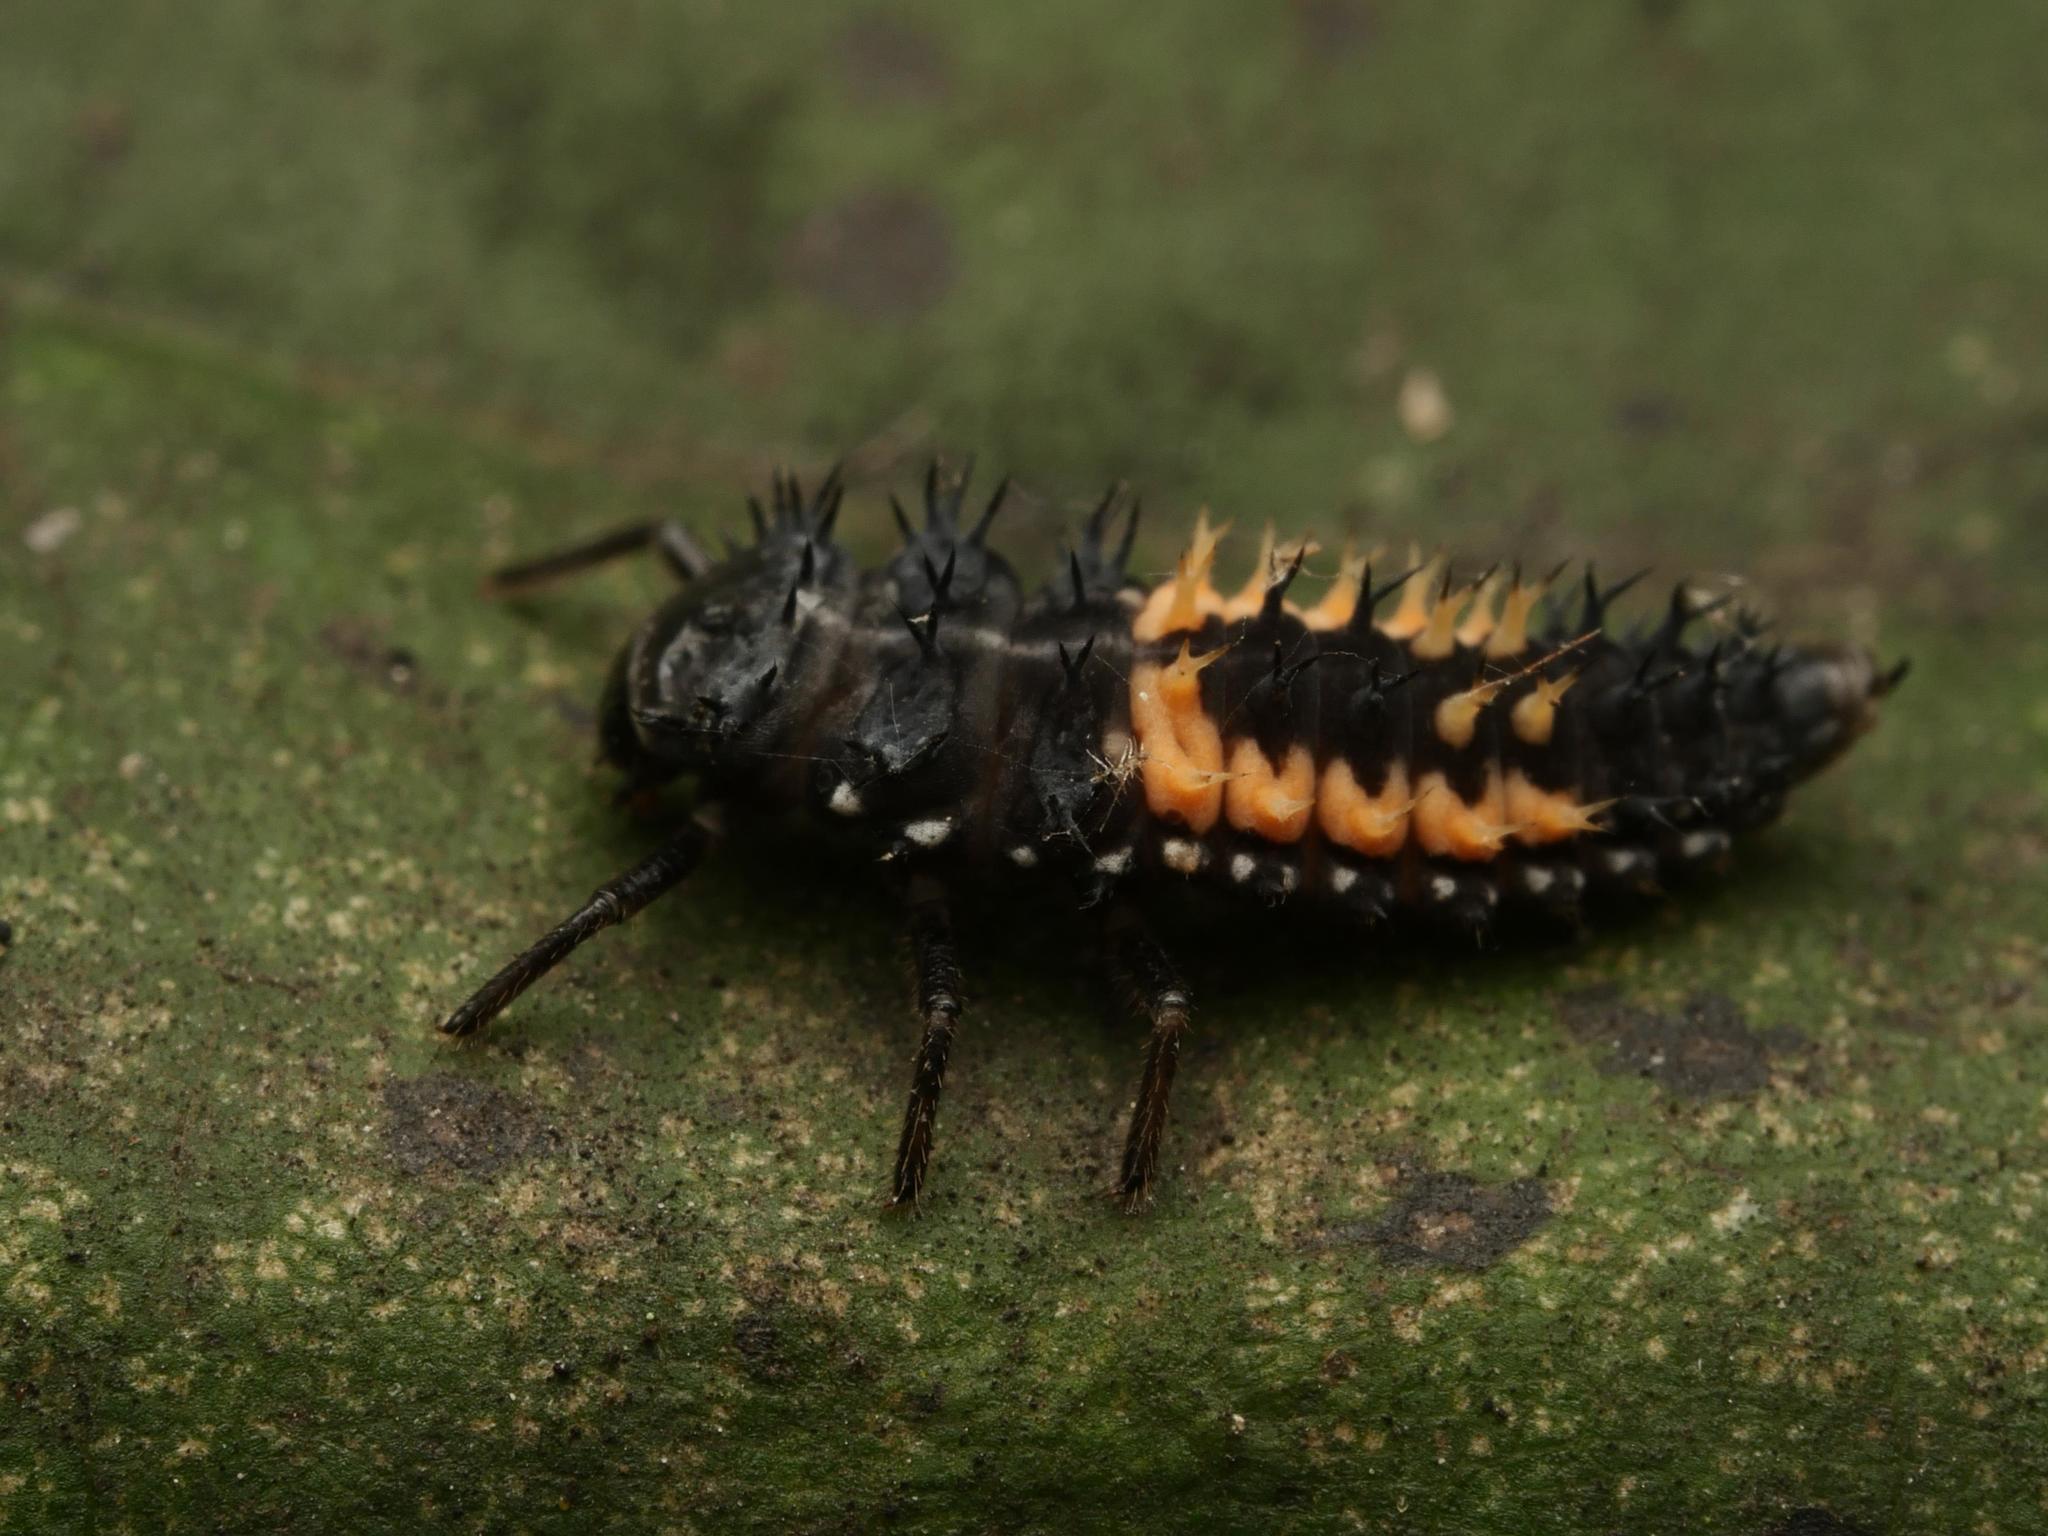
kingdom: Animalia
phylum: Arthropoda
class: Insecta
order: Coleoptera
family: Coccinellidae
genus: Harmonia
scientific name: Harmonia axyridis
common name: Harlequin ladybird
